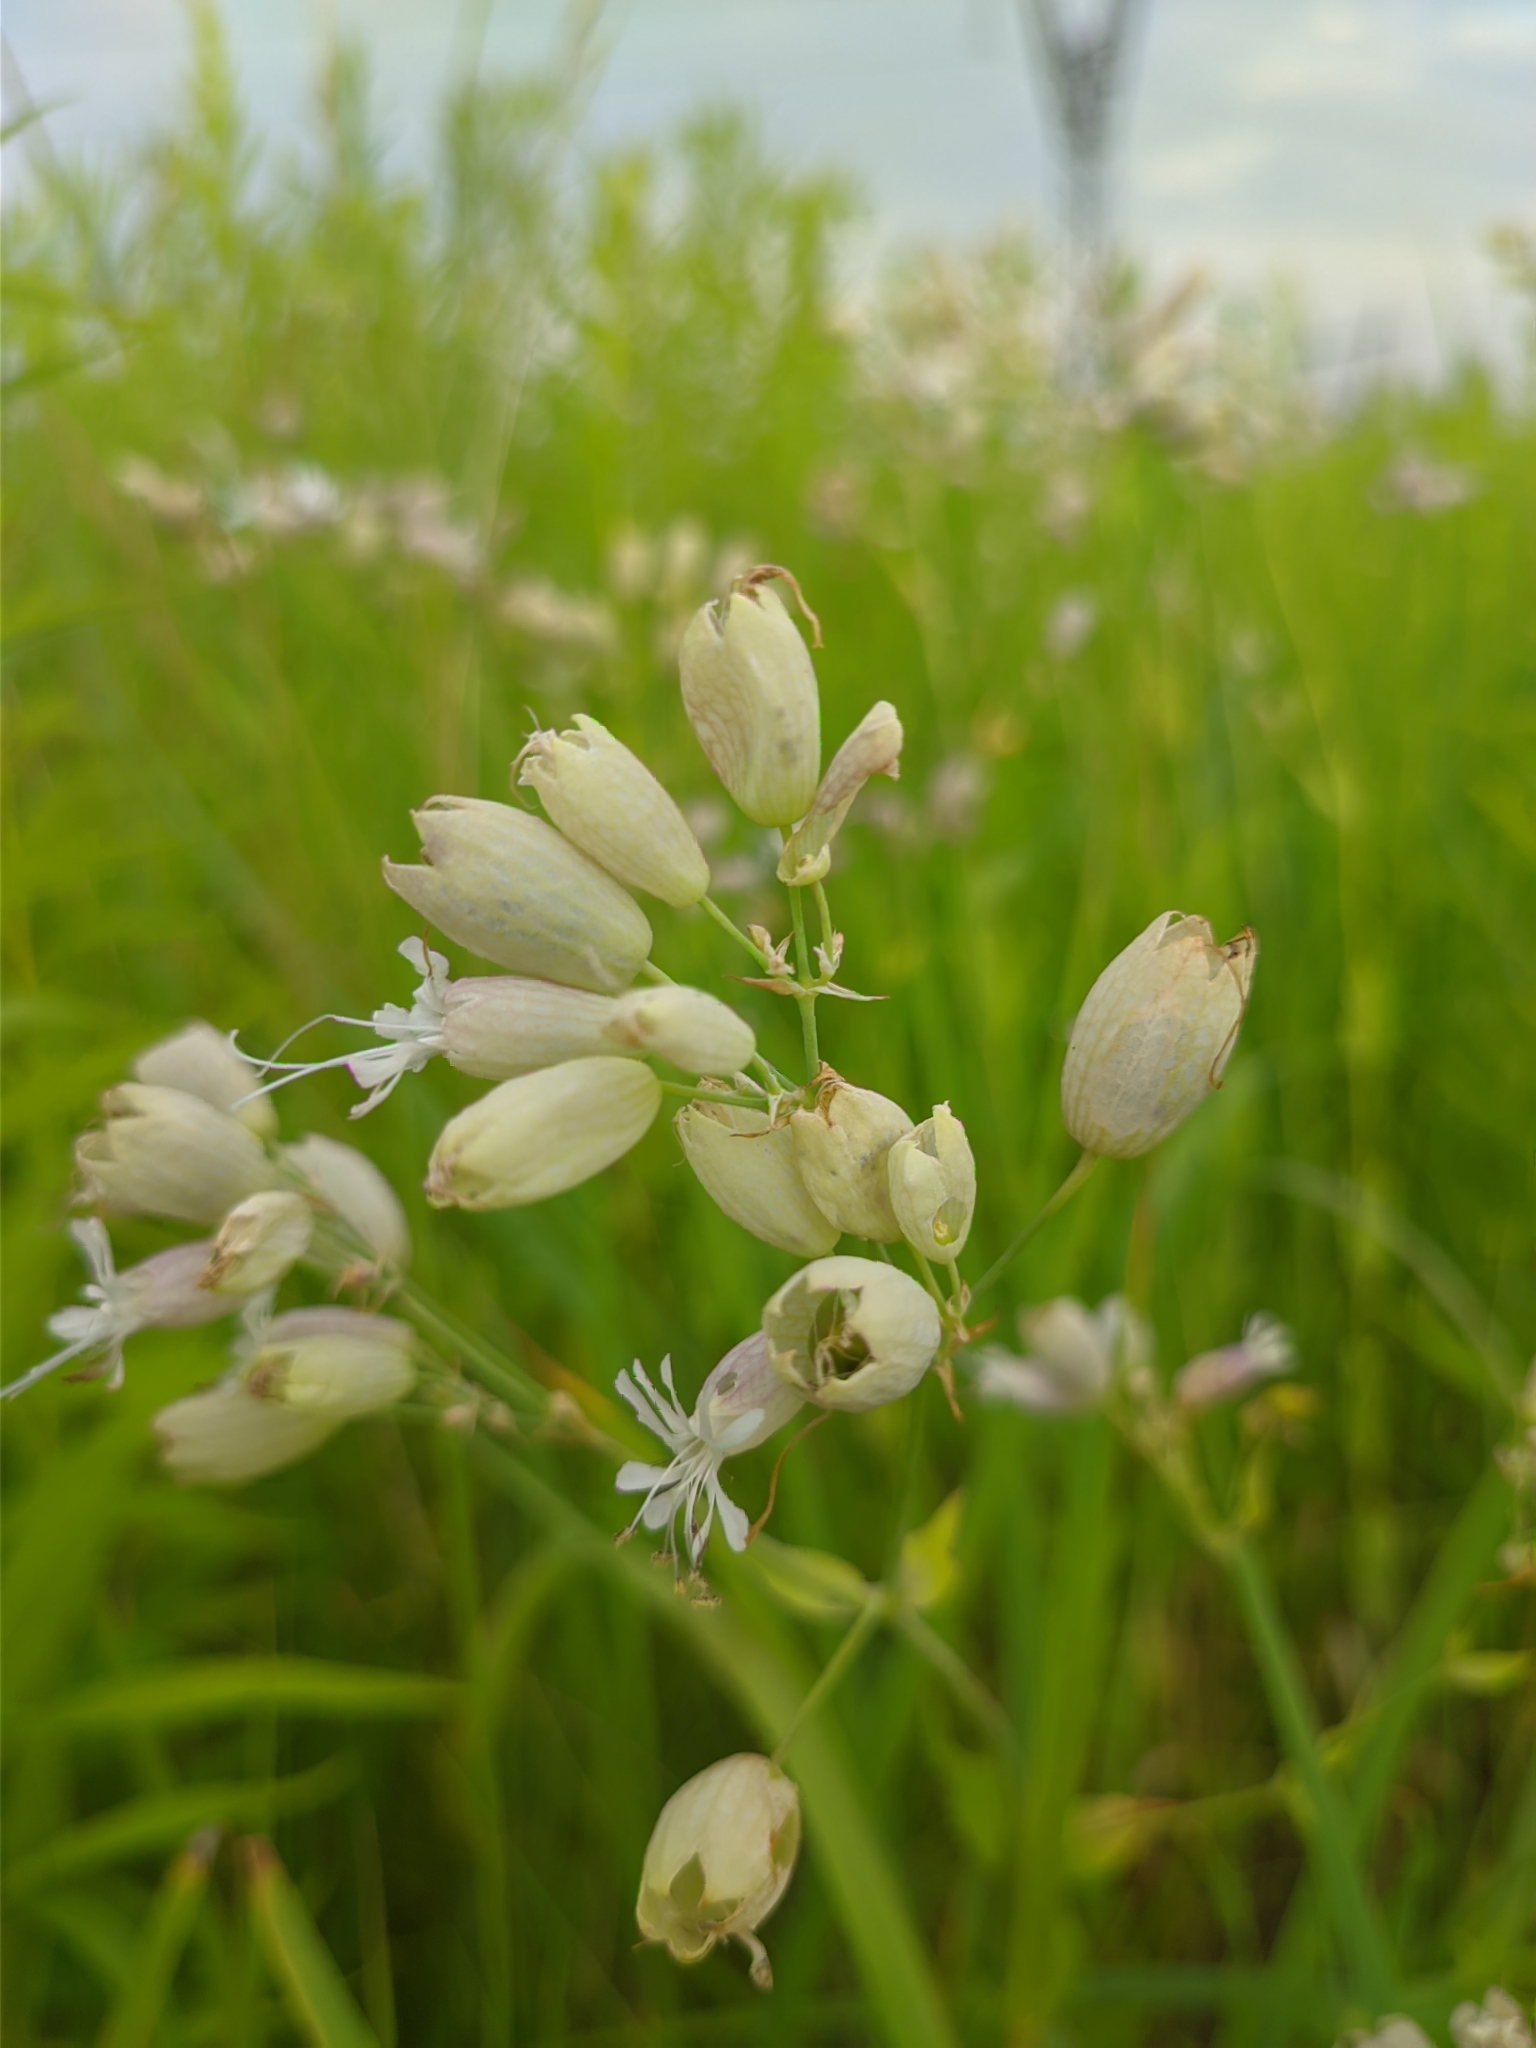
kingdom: Plantae
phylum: Tracheophyta
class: Magnoliopsida
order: Caryophyllales
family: Caryophyllaceae
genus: Silene
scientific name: Silene vulgaris
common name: Bladder campion
